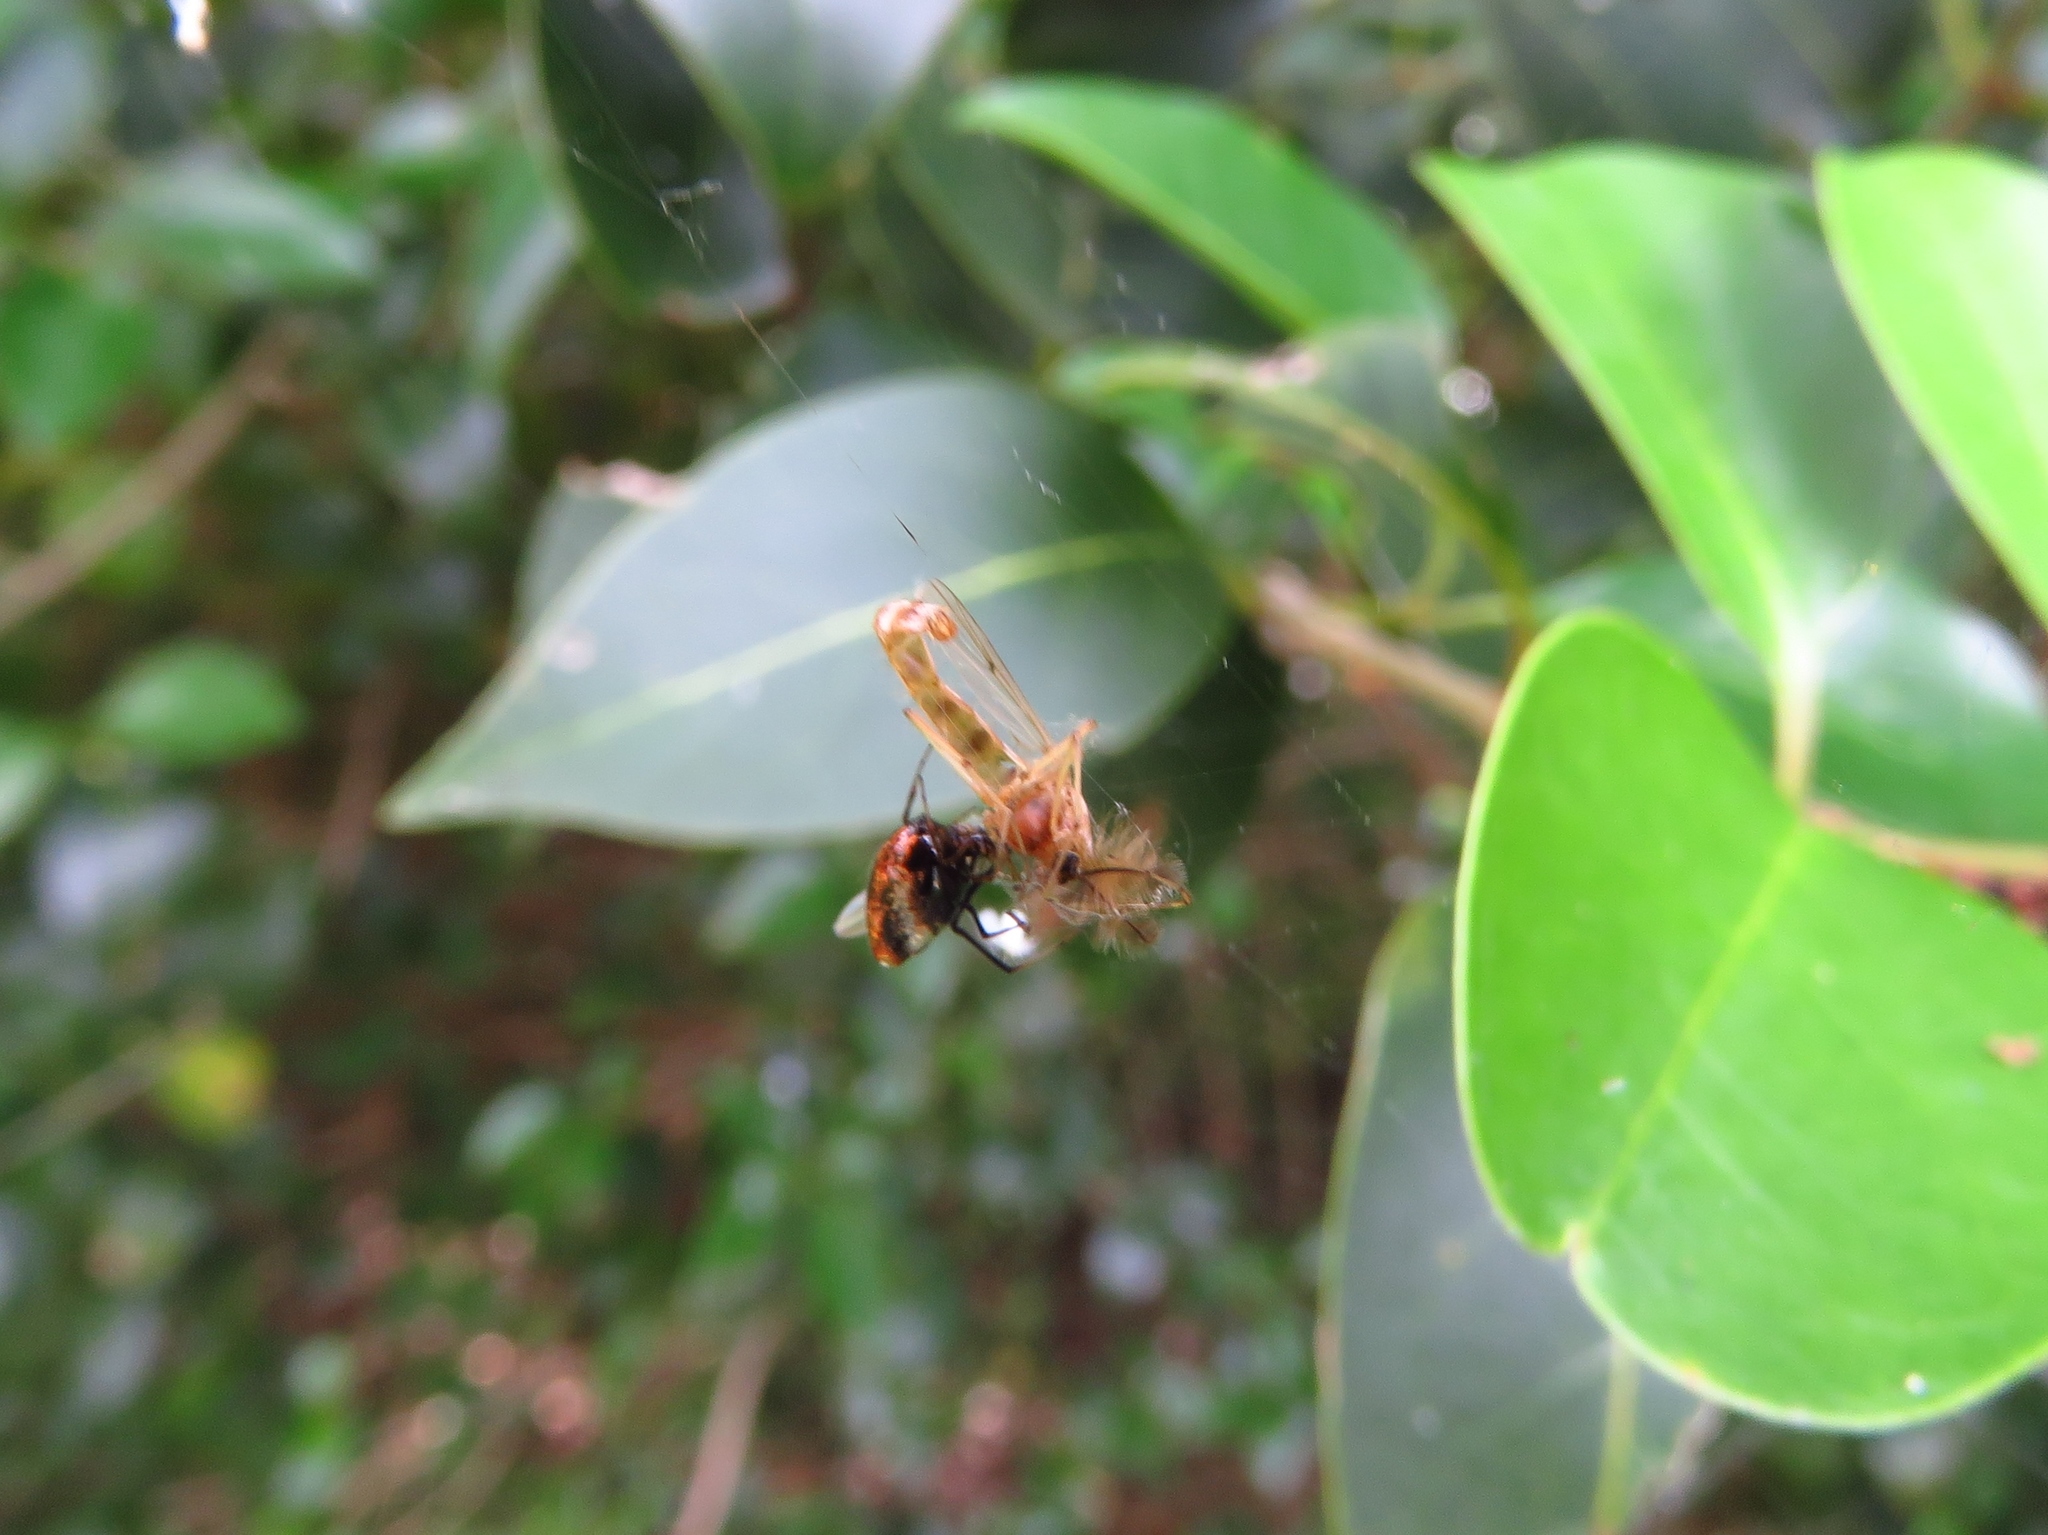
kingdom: Animalia
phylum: Arthropoda
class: Arachnida
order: Araneae
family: Theridiidae
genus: Argyrodes
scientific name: Argyrodes elevatus
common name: Cobweb spiders
